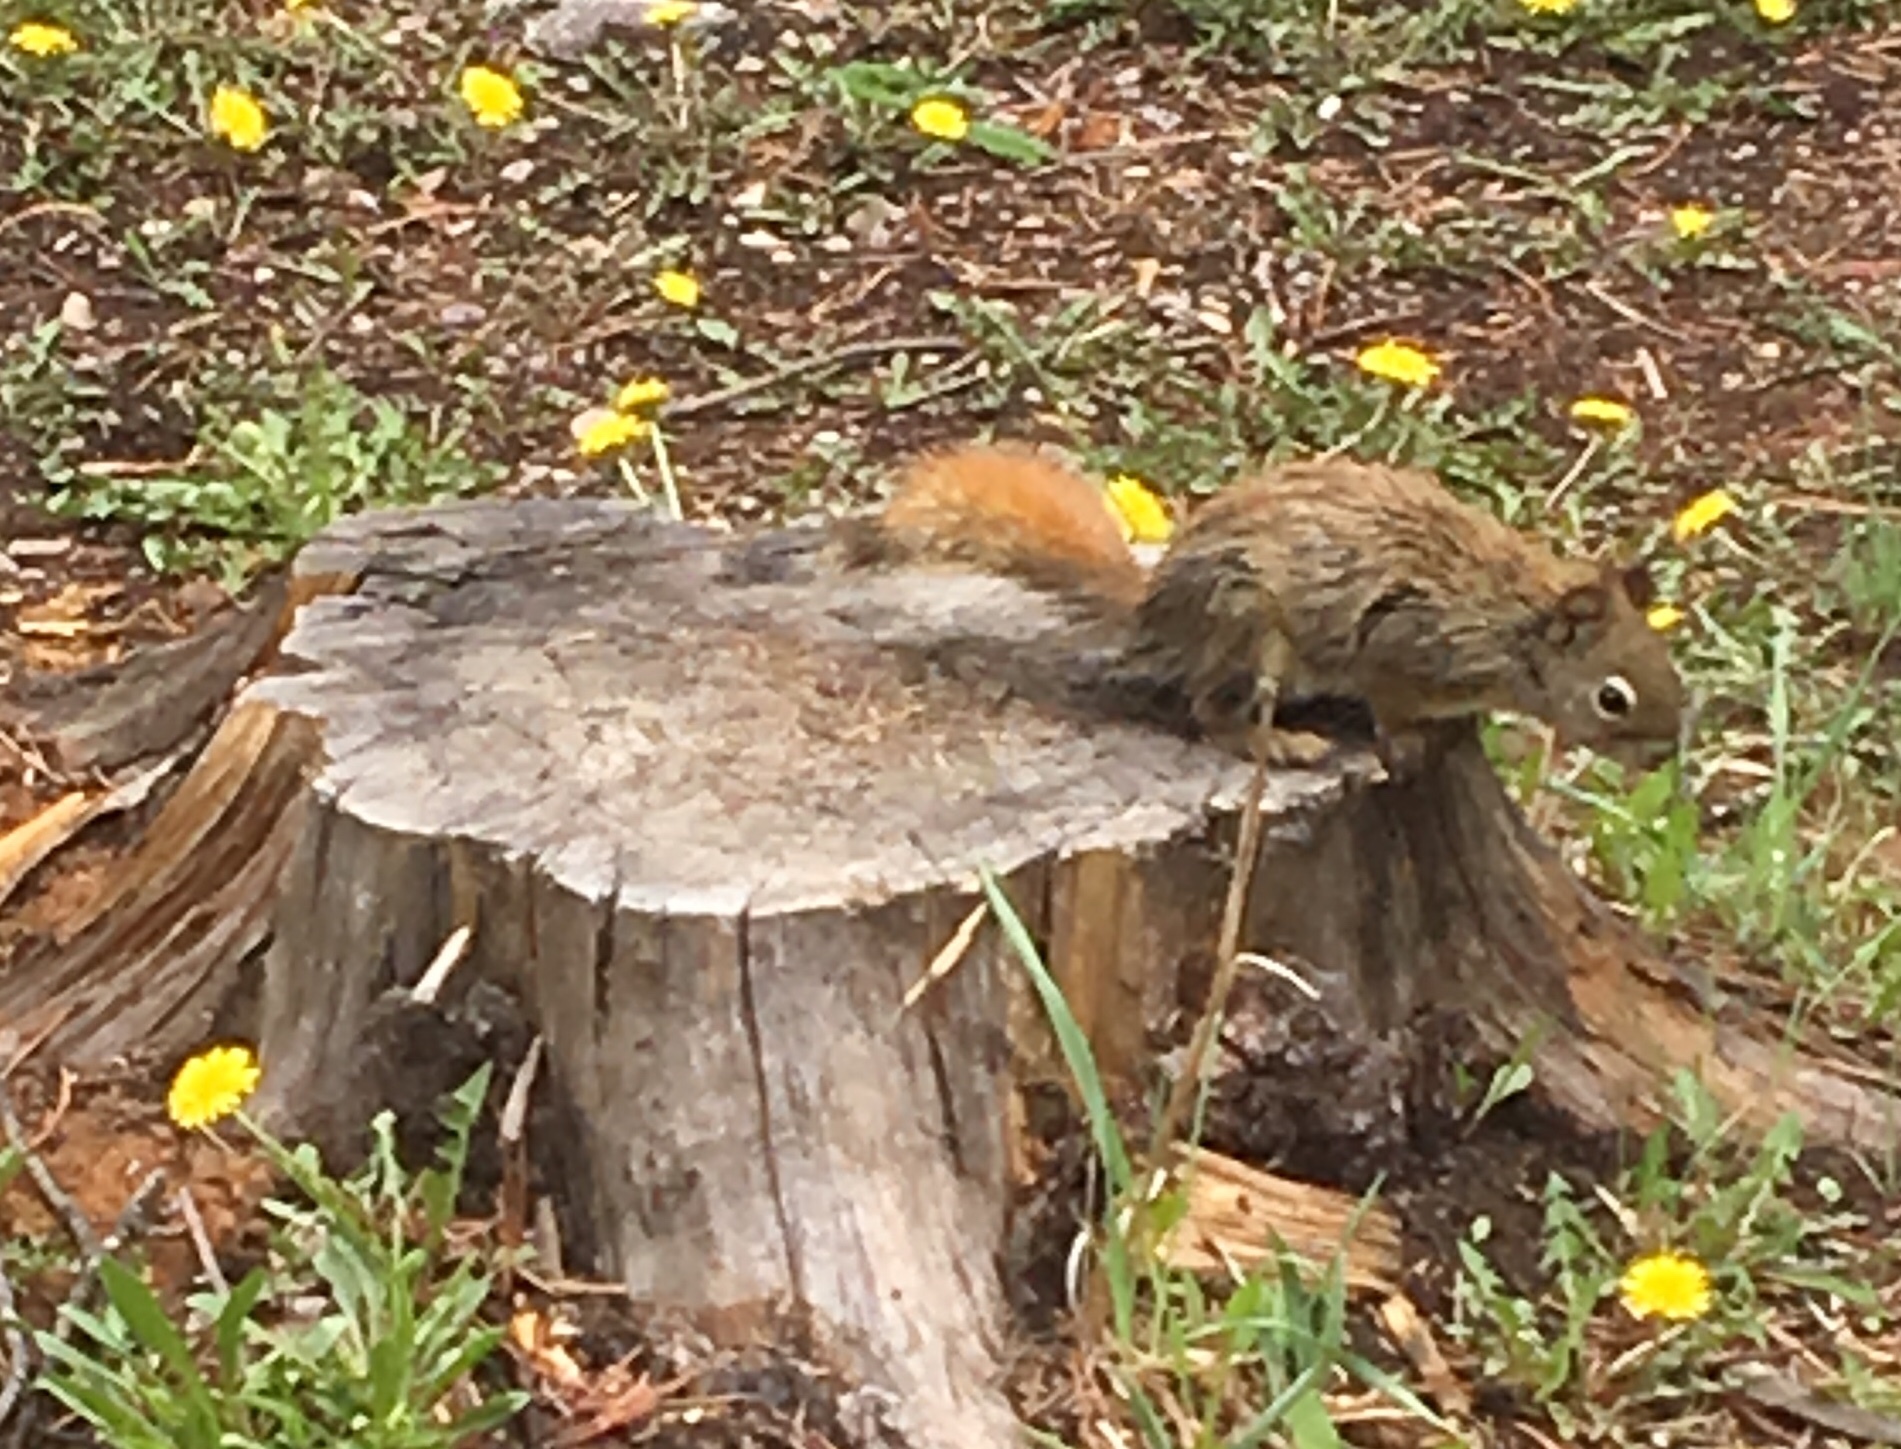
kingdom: Animalia
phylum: Chordata
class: Mammalia
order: Rodentia
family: Sciuridae
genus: Tamiasciurus
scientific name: Tamiasciurus hudsonicus
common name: Red squirrel
